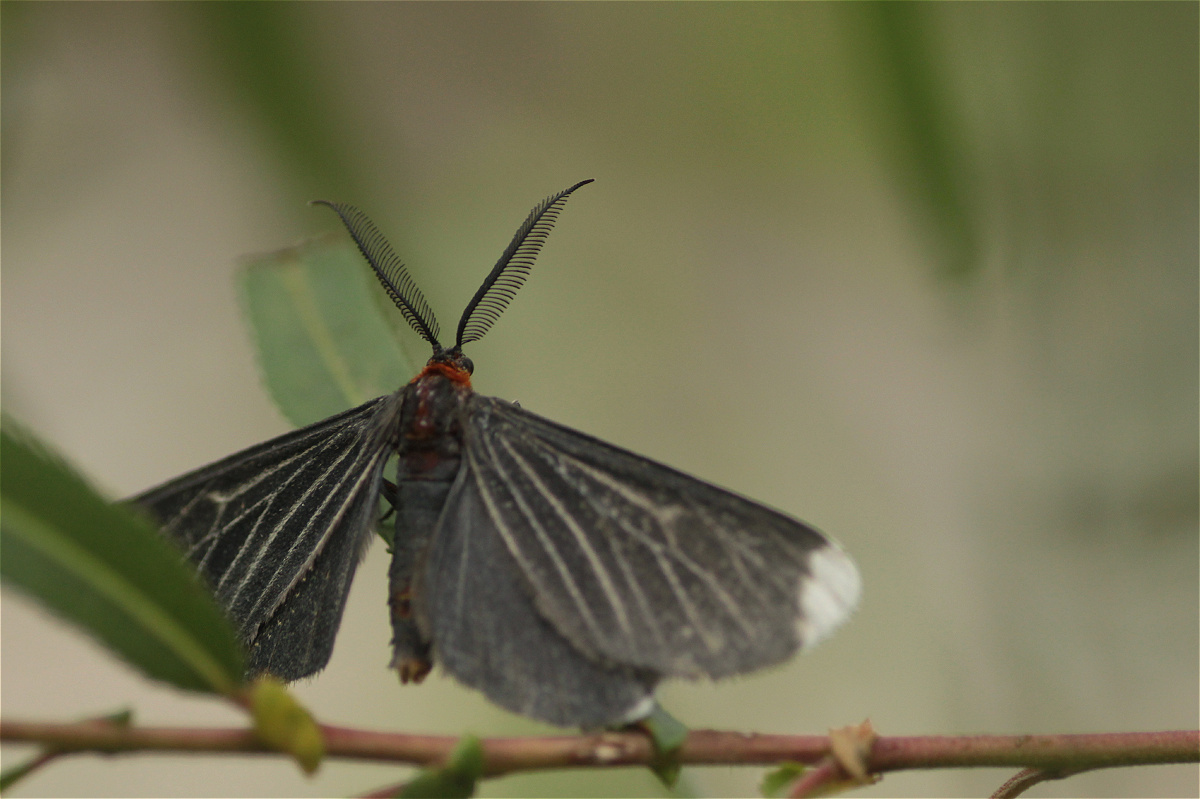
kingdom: Animalia
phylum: Arthropoda
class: Insecta
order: Lepidoptera
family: Geometridae
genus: Melanchroia
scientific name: Melanchroia chephise
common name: White-tipped black
